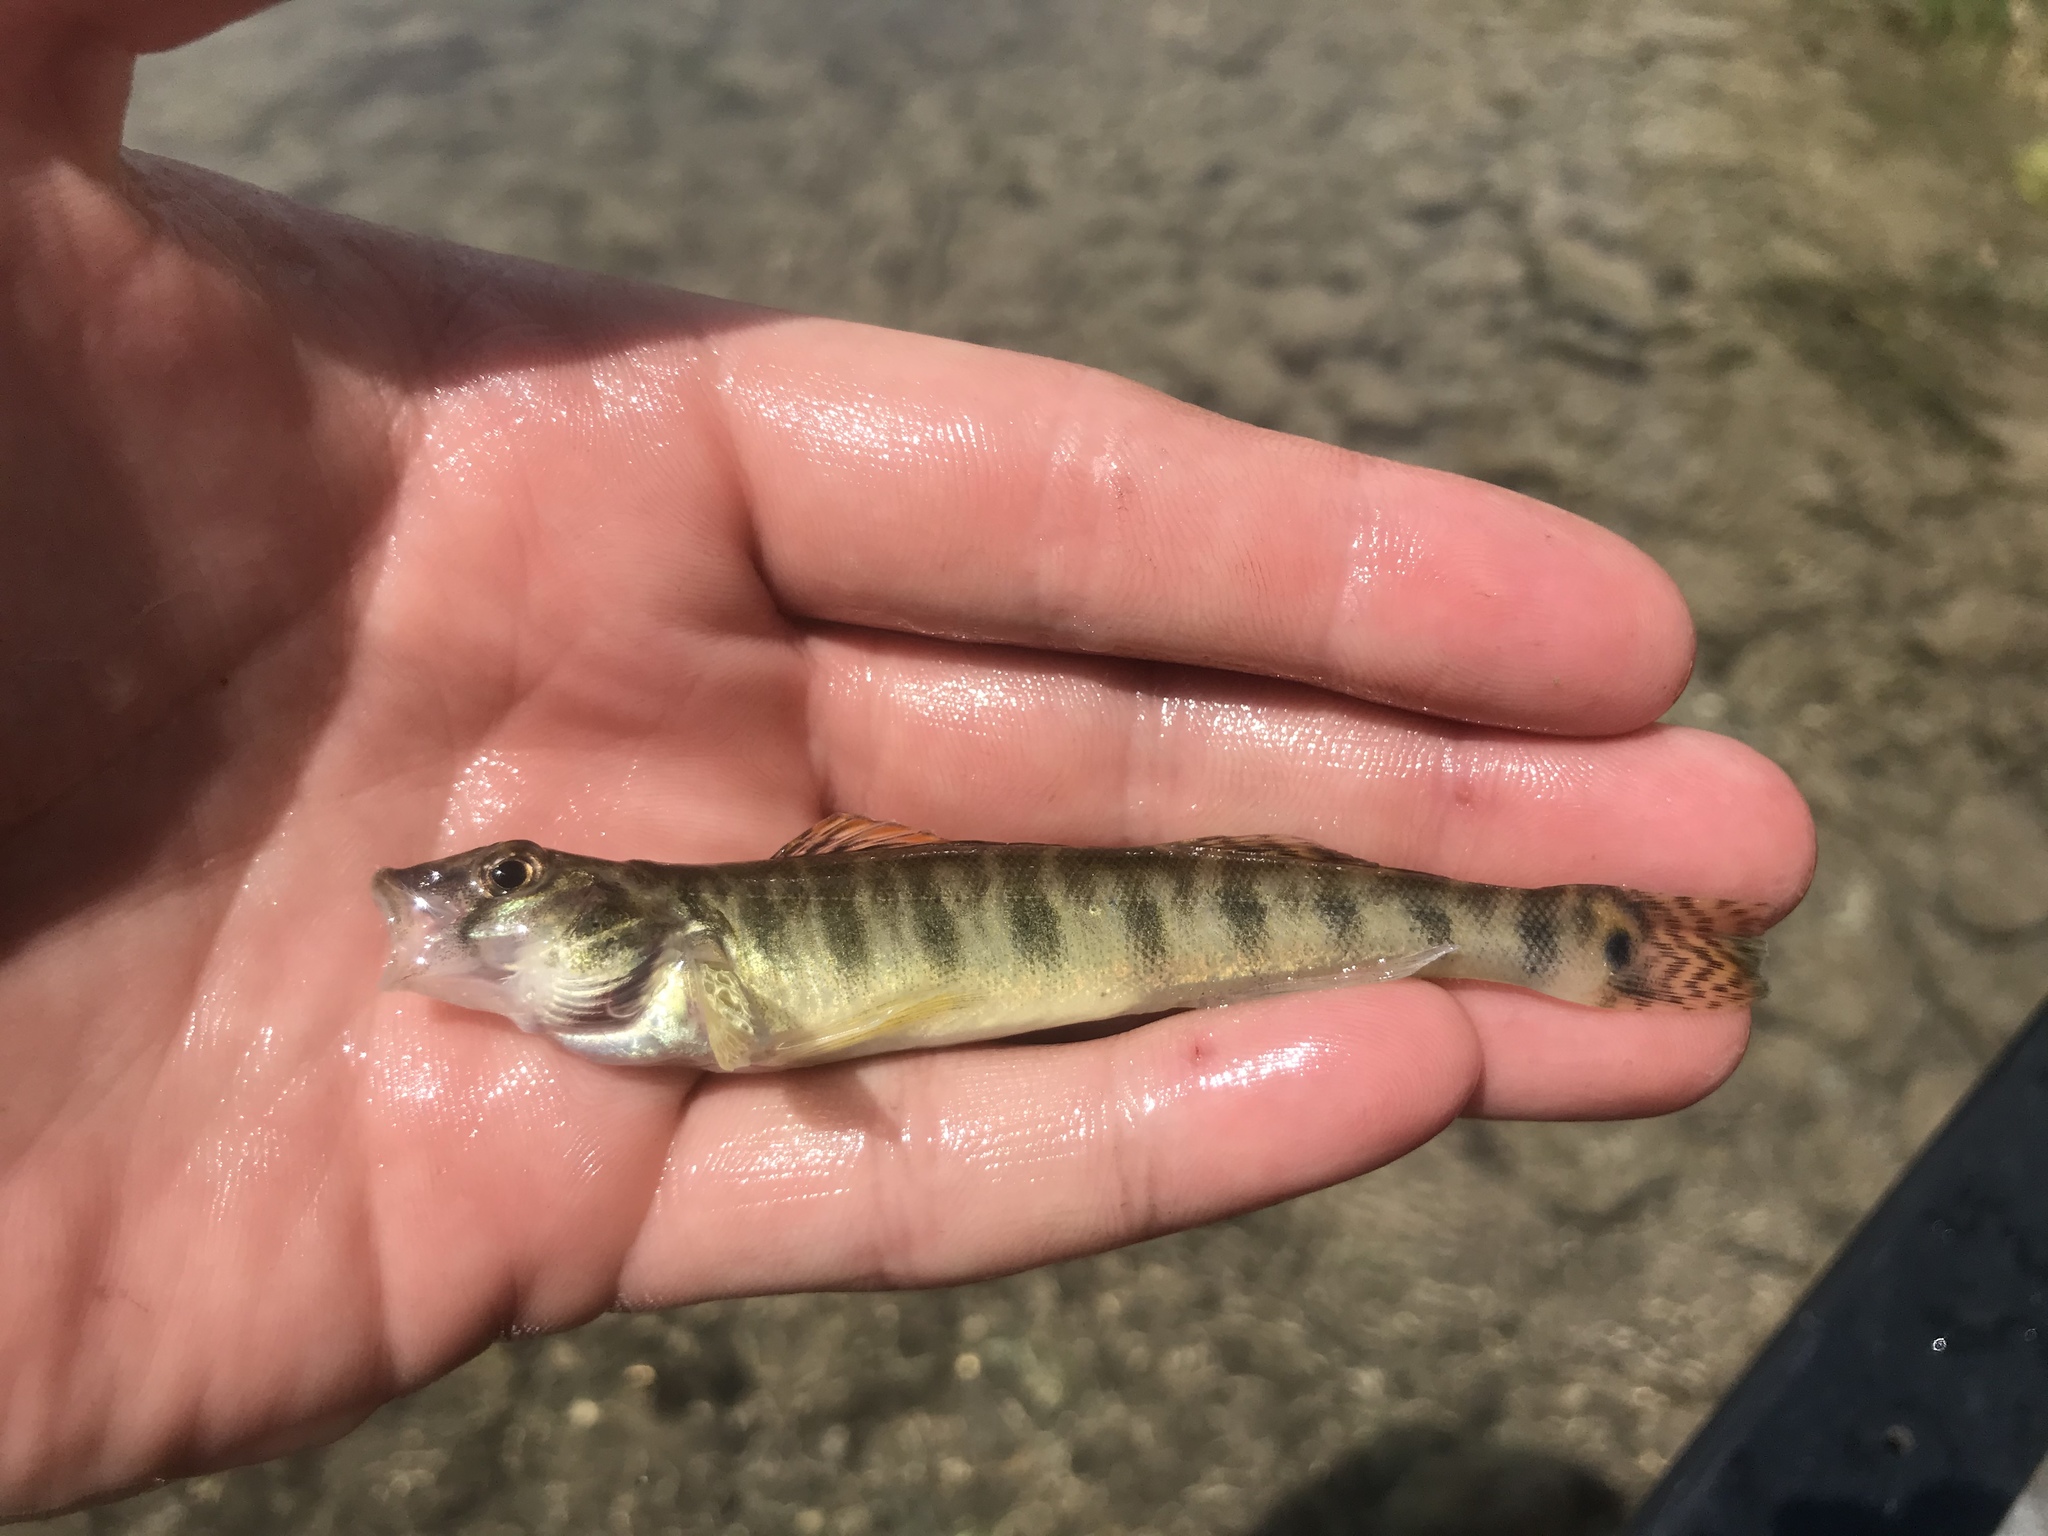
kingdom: Animalia
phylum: Chordata
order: Perciformes
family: Percidae
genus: Percina
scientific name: Percina carbonaria
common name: Texas logperch
